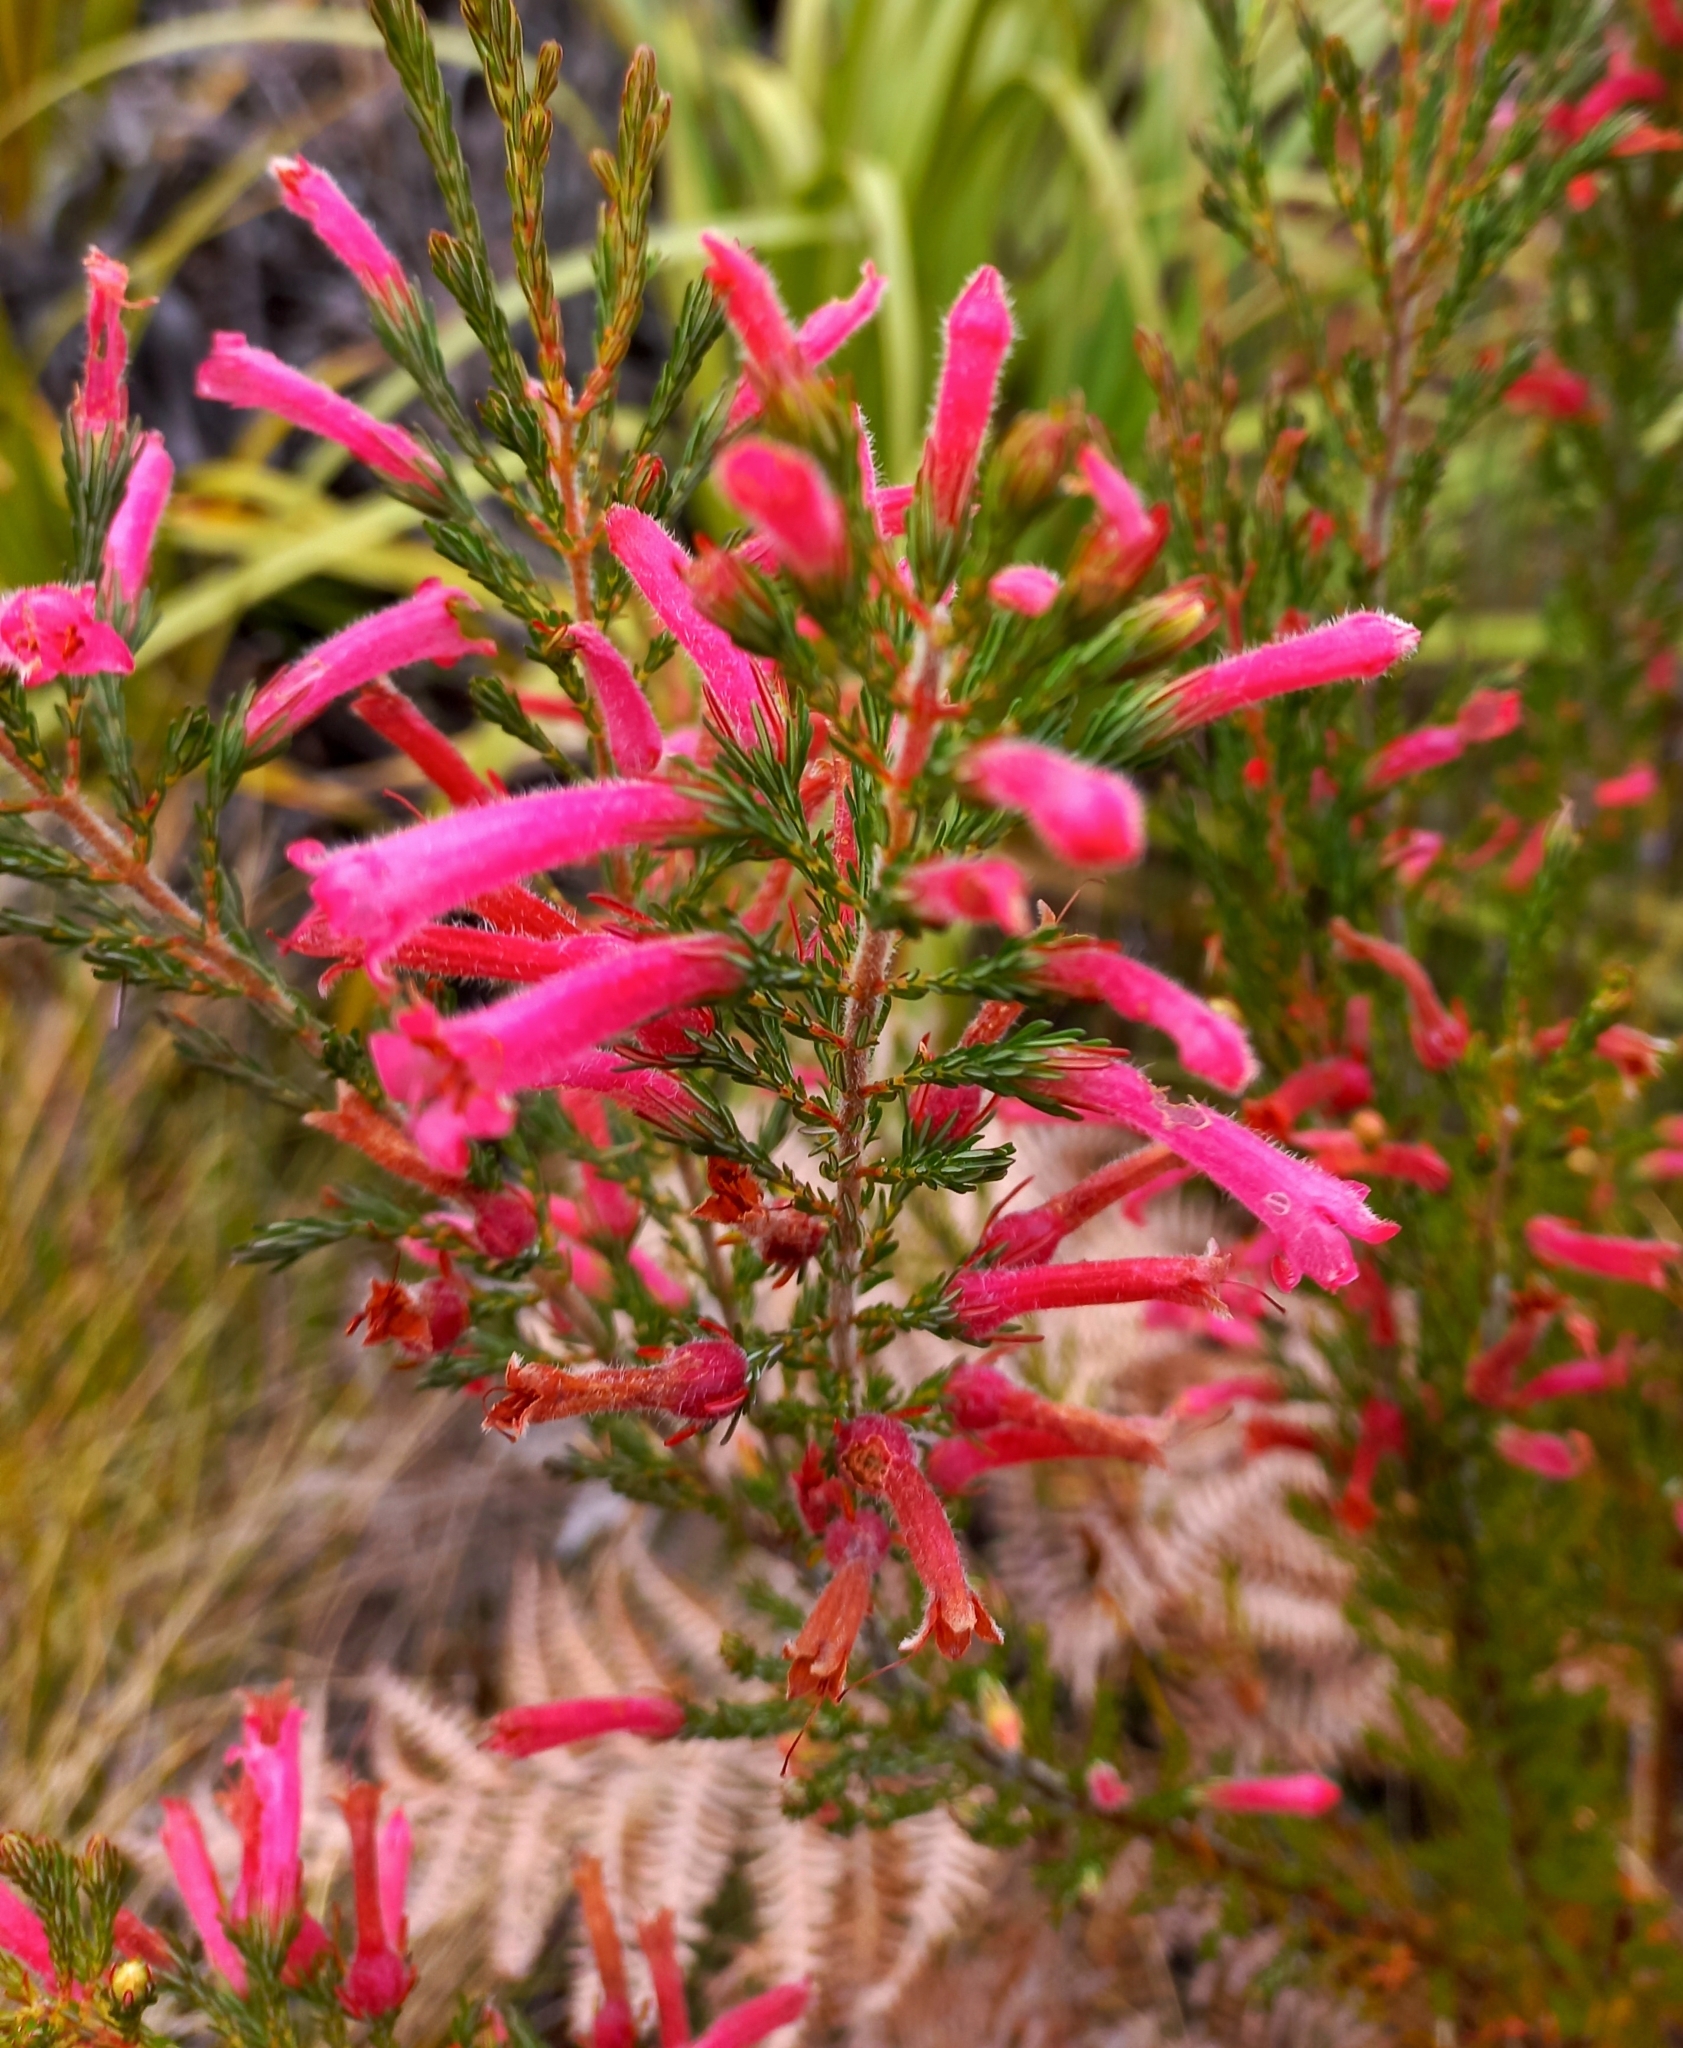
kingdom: Plantae
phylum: Tracheophyta
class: Magnoliopsida
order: Ericales
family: Ericaceae
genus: Erica
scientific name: Erica curviflora
